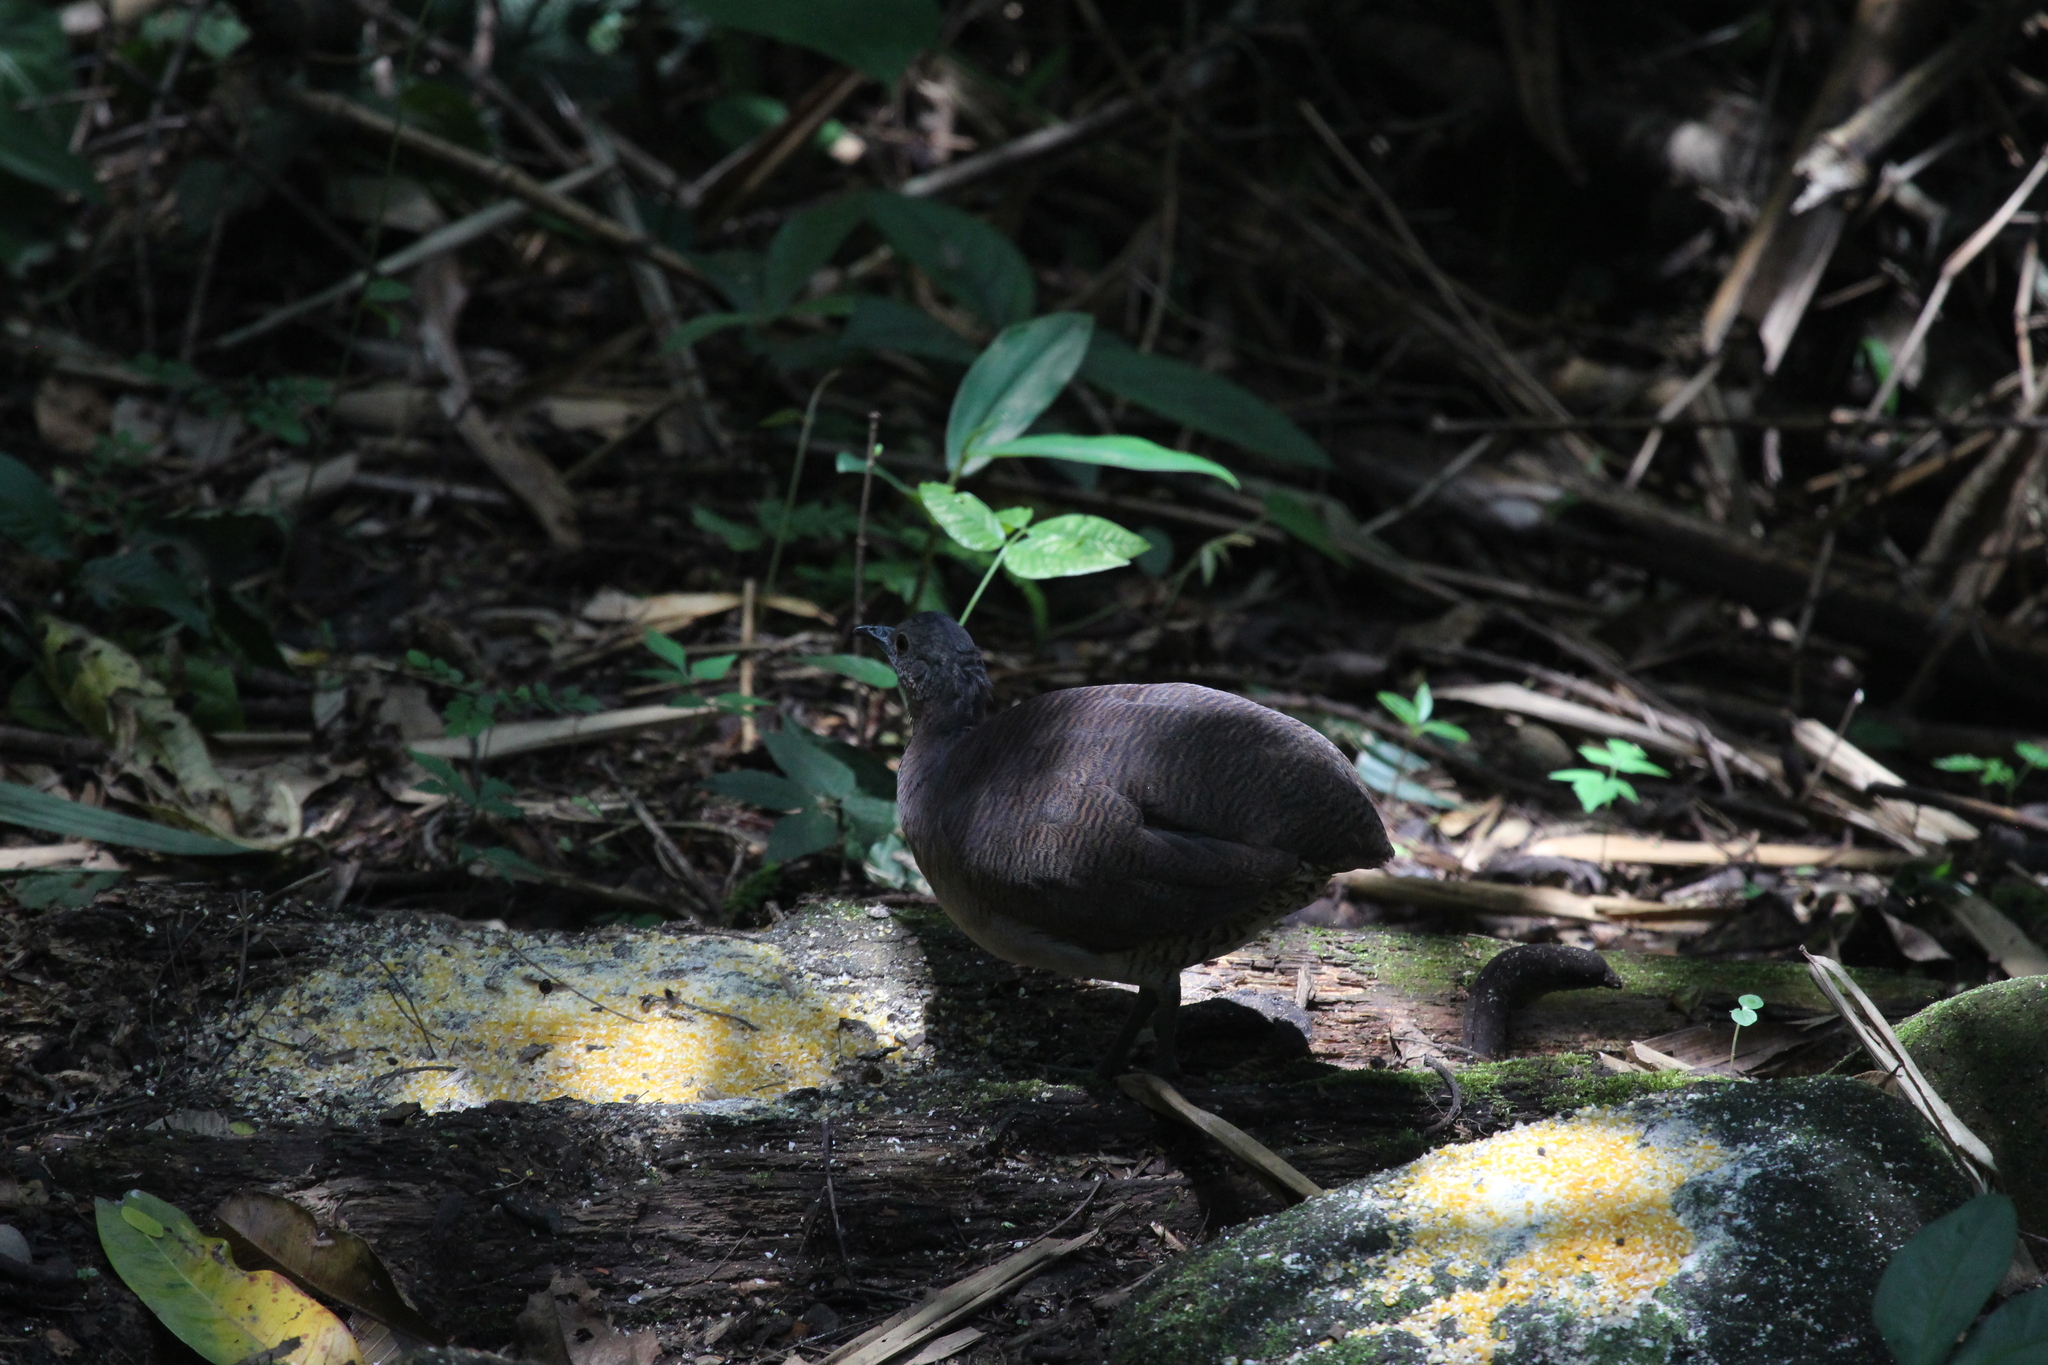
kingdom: Animalia
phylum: Chordata
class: Aves
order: Tinamiformes
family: Tinamidae
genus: Crypturellus
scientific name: Crypturellus undulatus
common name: Undulated tinamou
